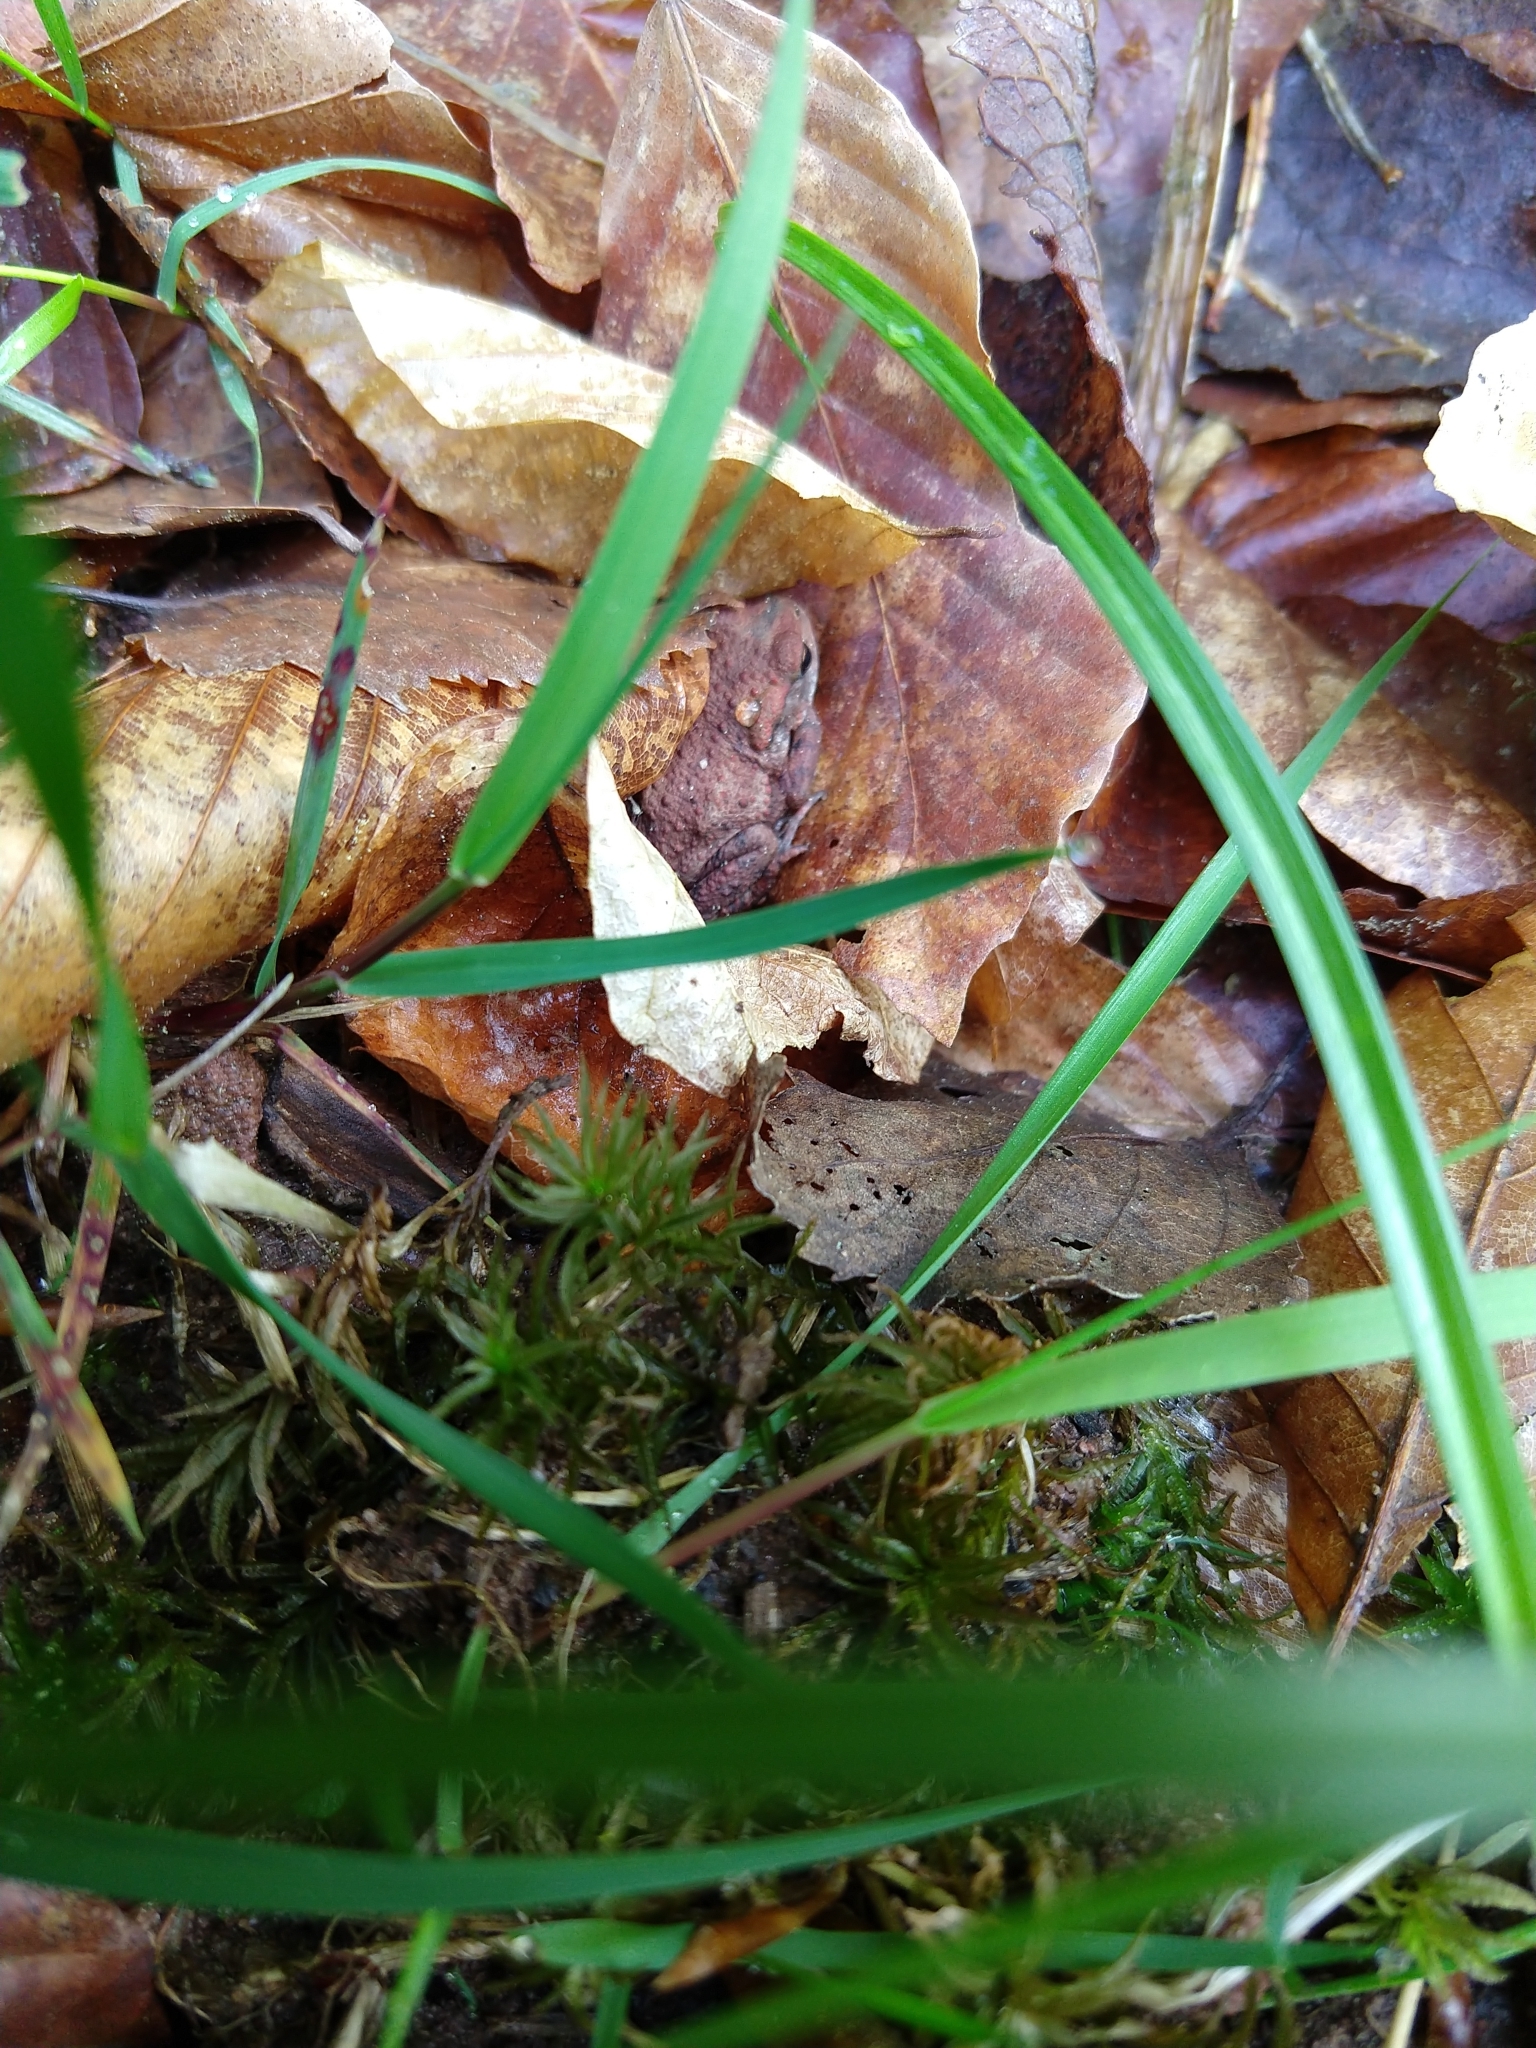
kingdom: Animalia
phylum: Chordata
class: Amphibia
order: Anura
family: Bufonidae
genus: Bufo
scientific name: Bufo bufo
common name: Common toad
